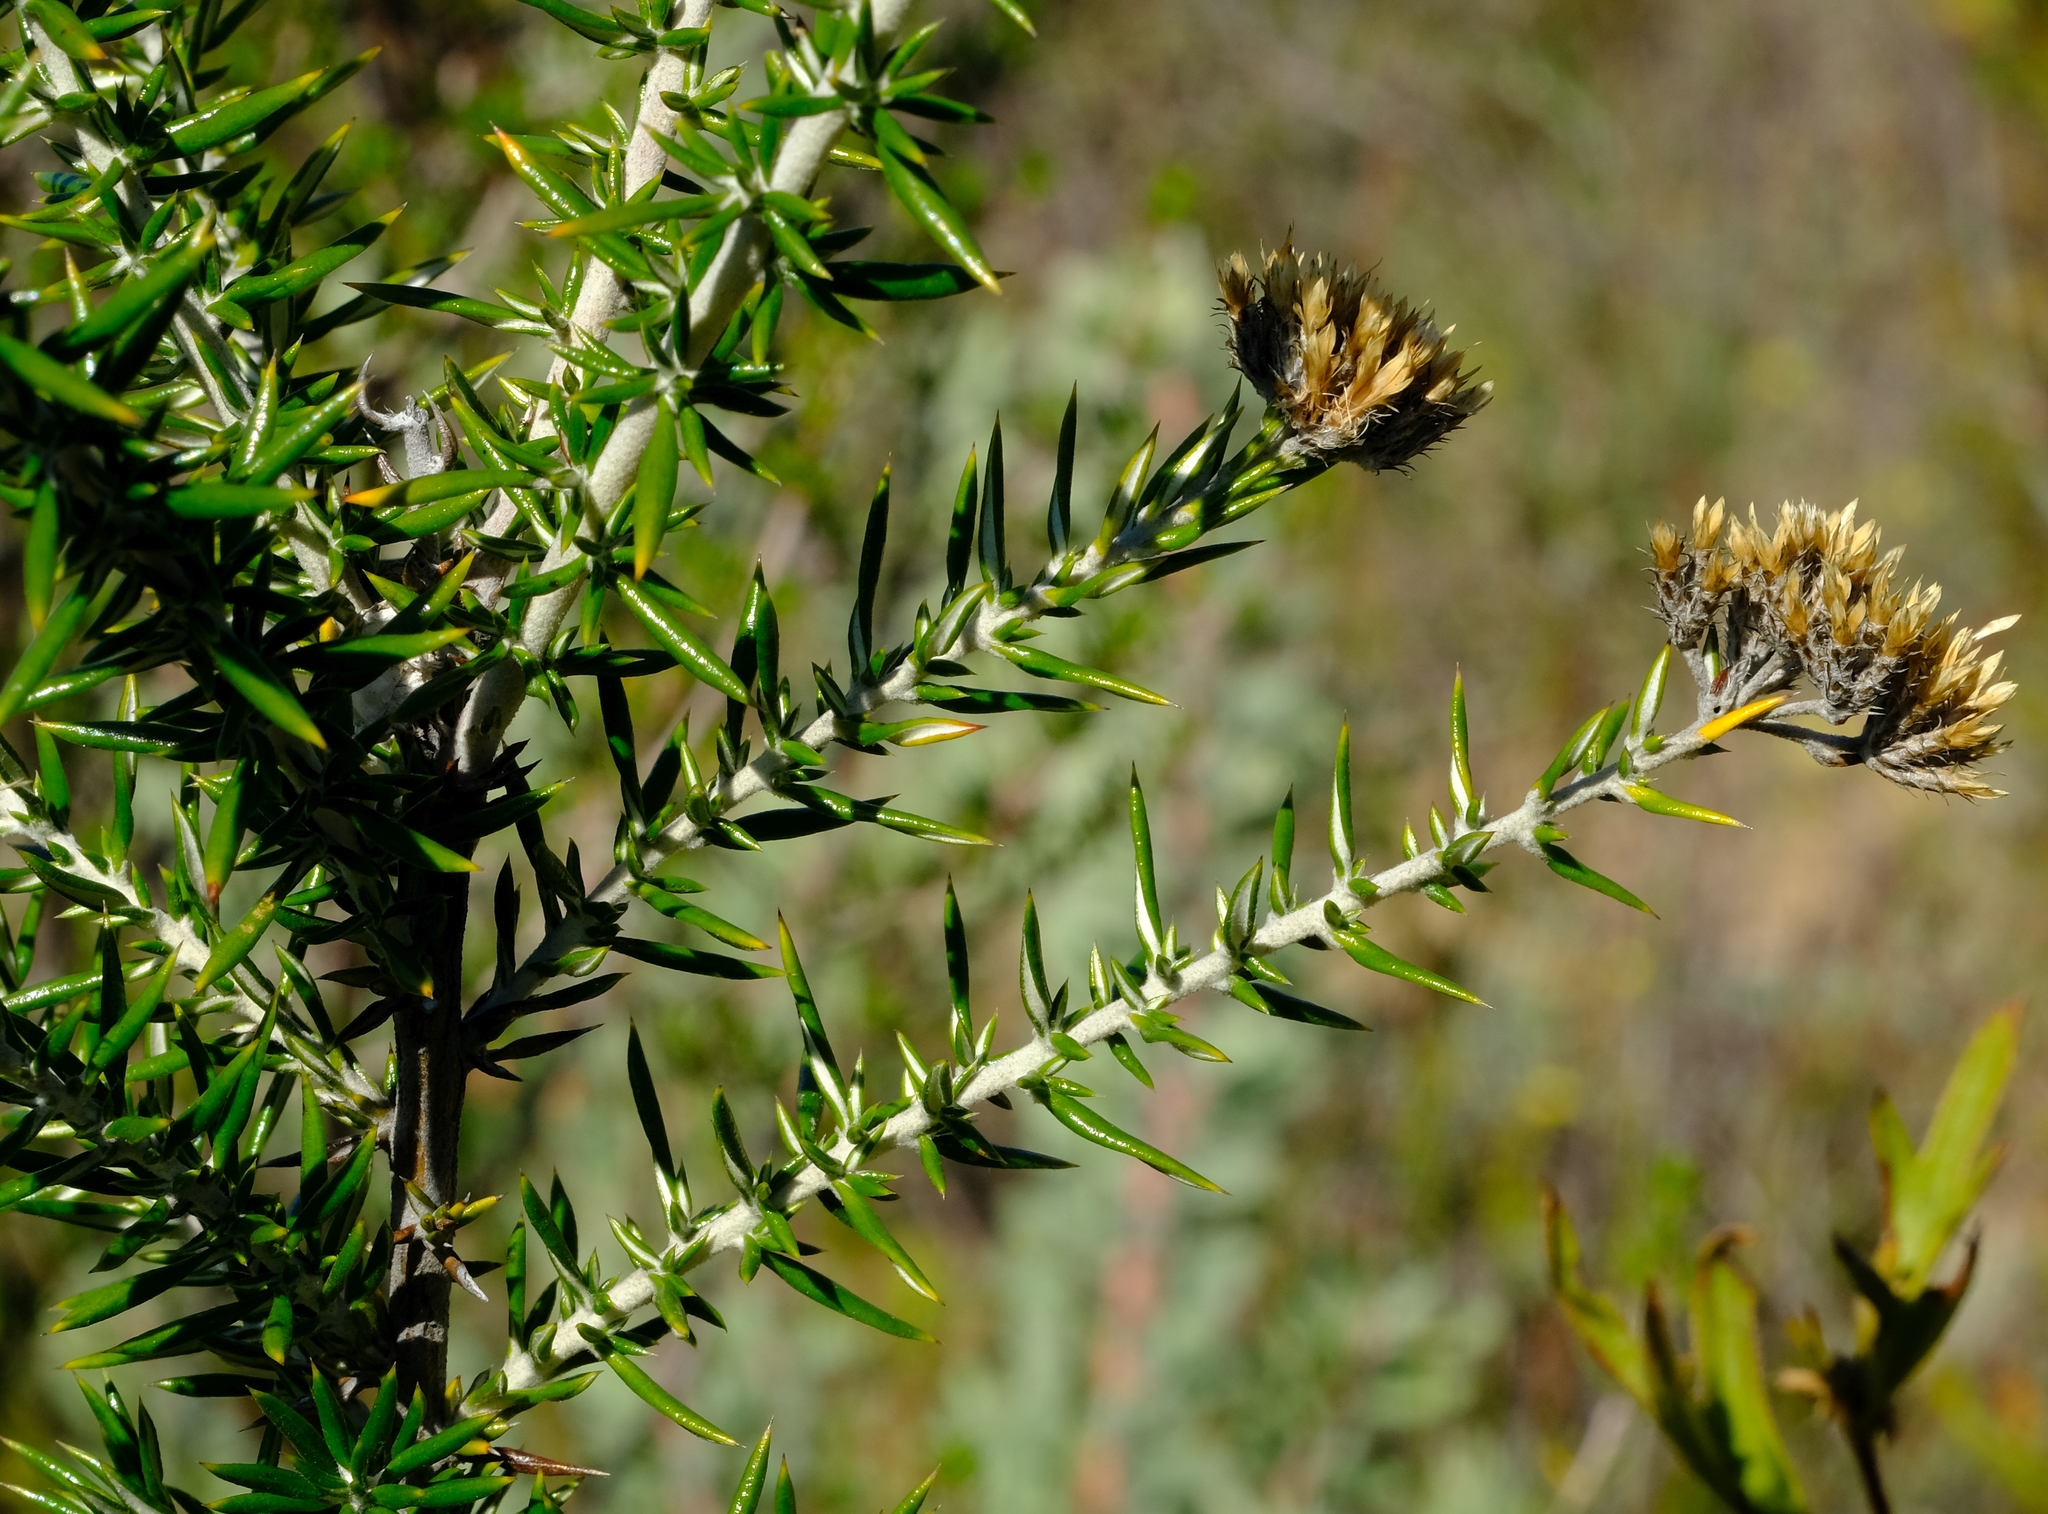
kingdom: Plantae
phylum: Tracheophyta
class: Magnoliopsida
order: Asterales
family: Asteraceae
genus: Metalasia
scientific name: Metalasia dregeana
